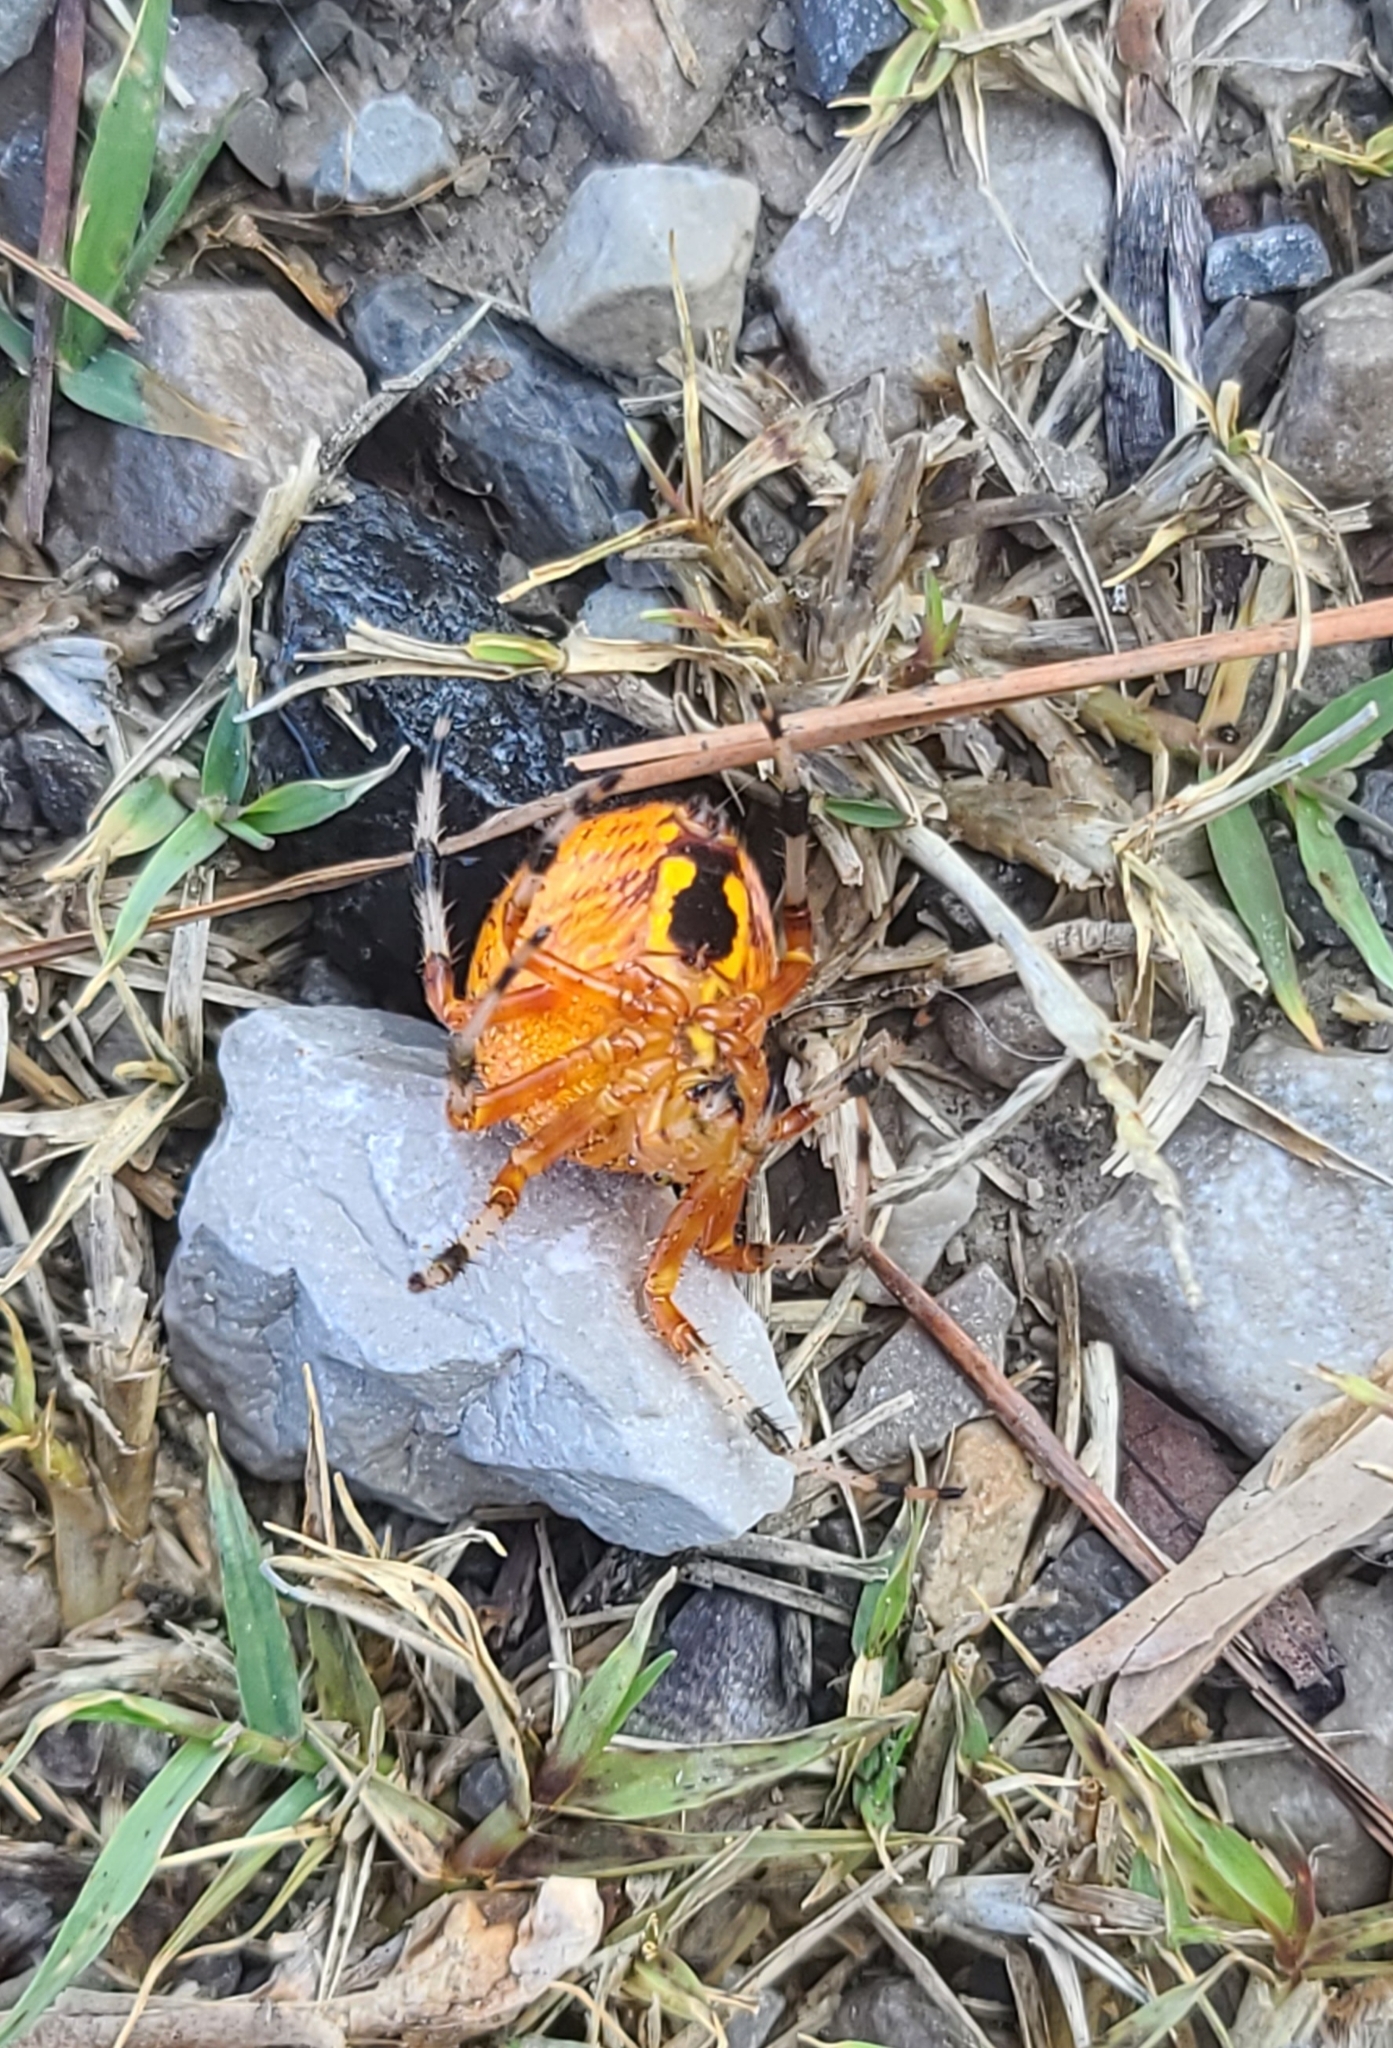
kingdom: Animalia
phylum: Arthropoda
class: Arachnida
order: Araneae
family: Araneidae
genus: Araneus
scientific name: Araneus marmoreus
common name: Marbled orbweaver
